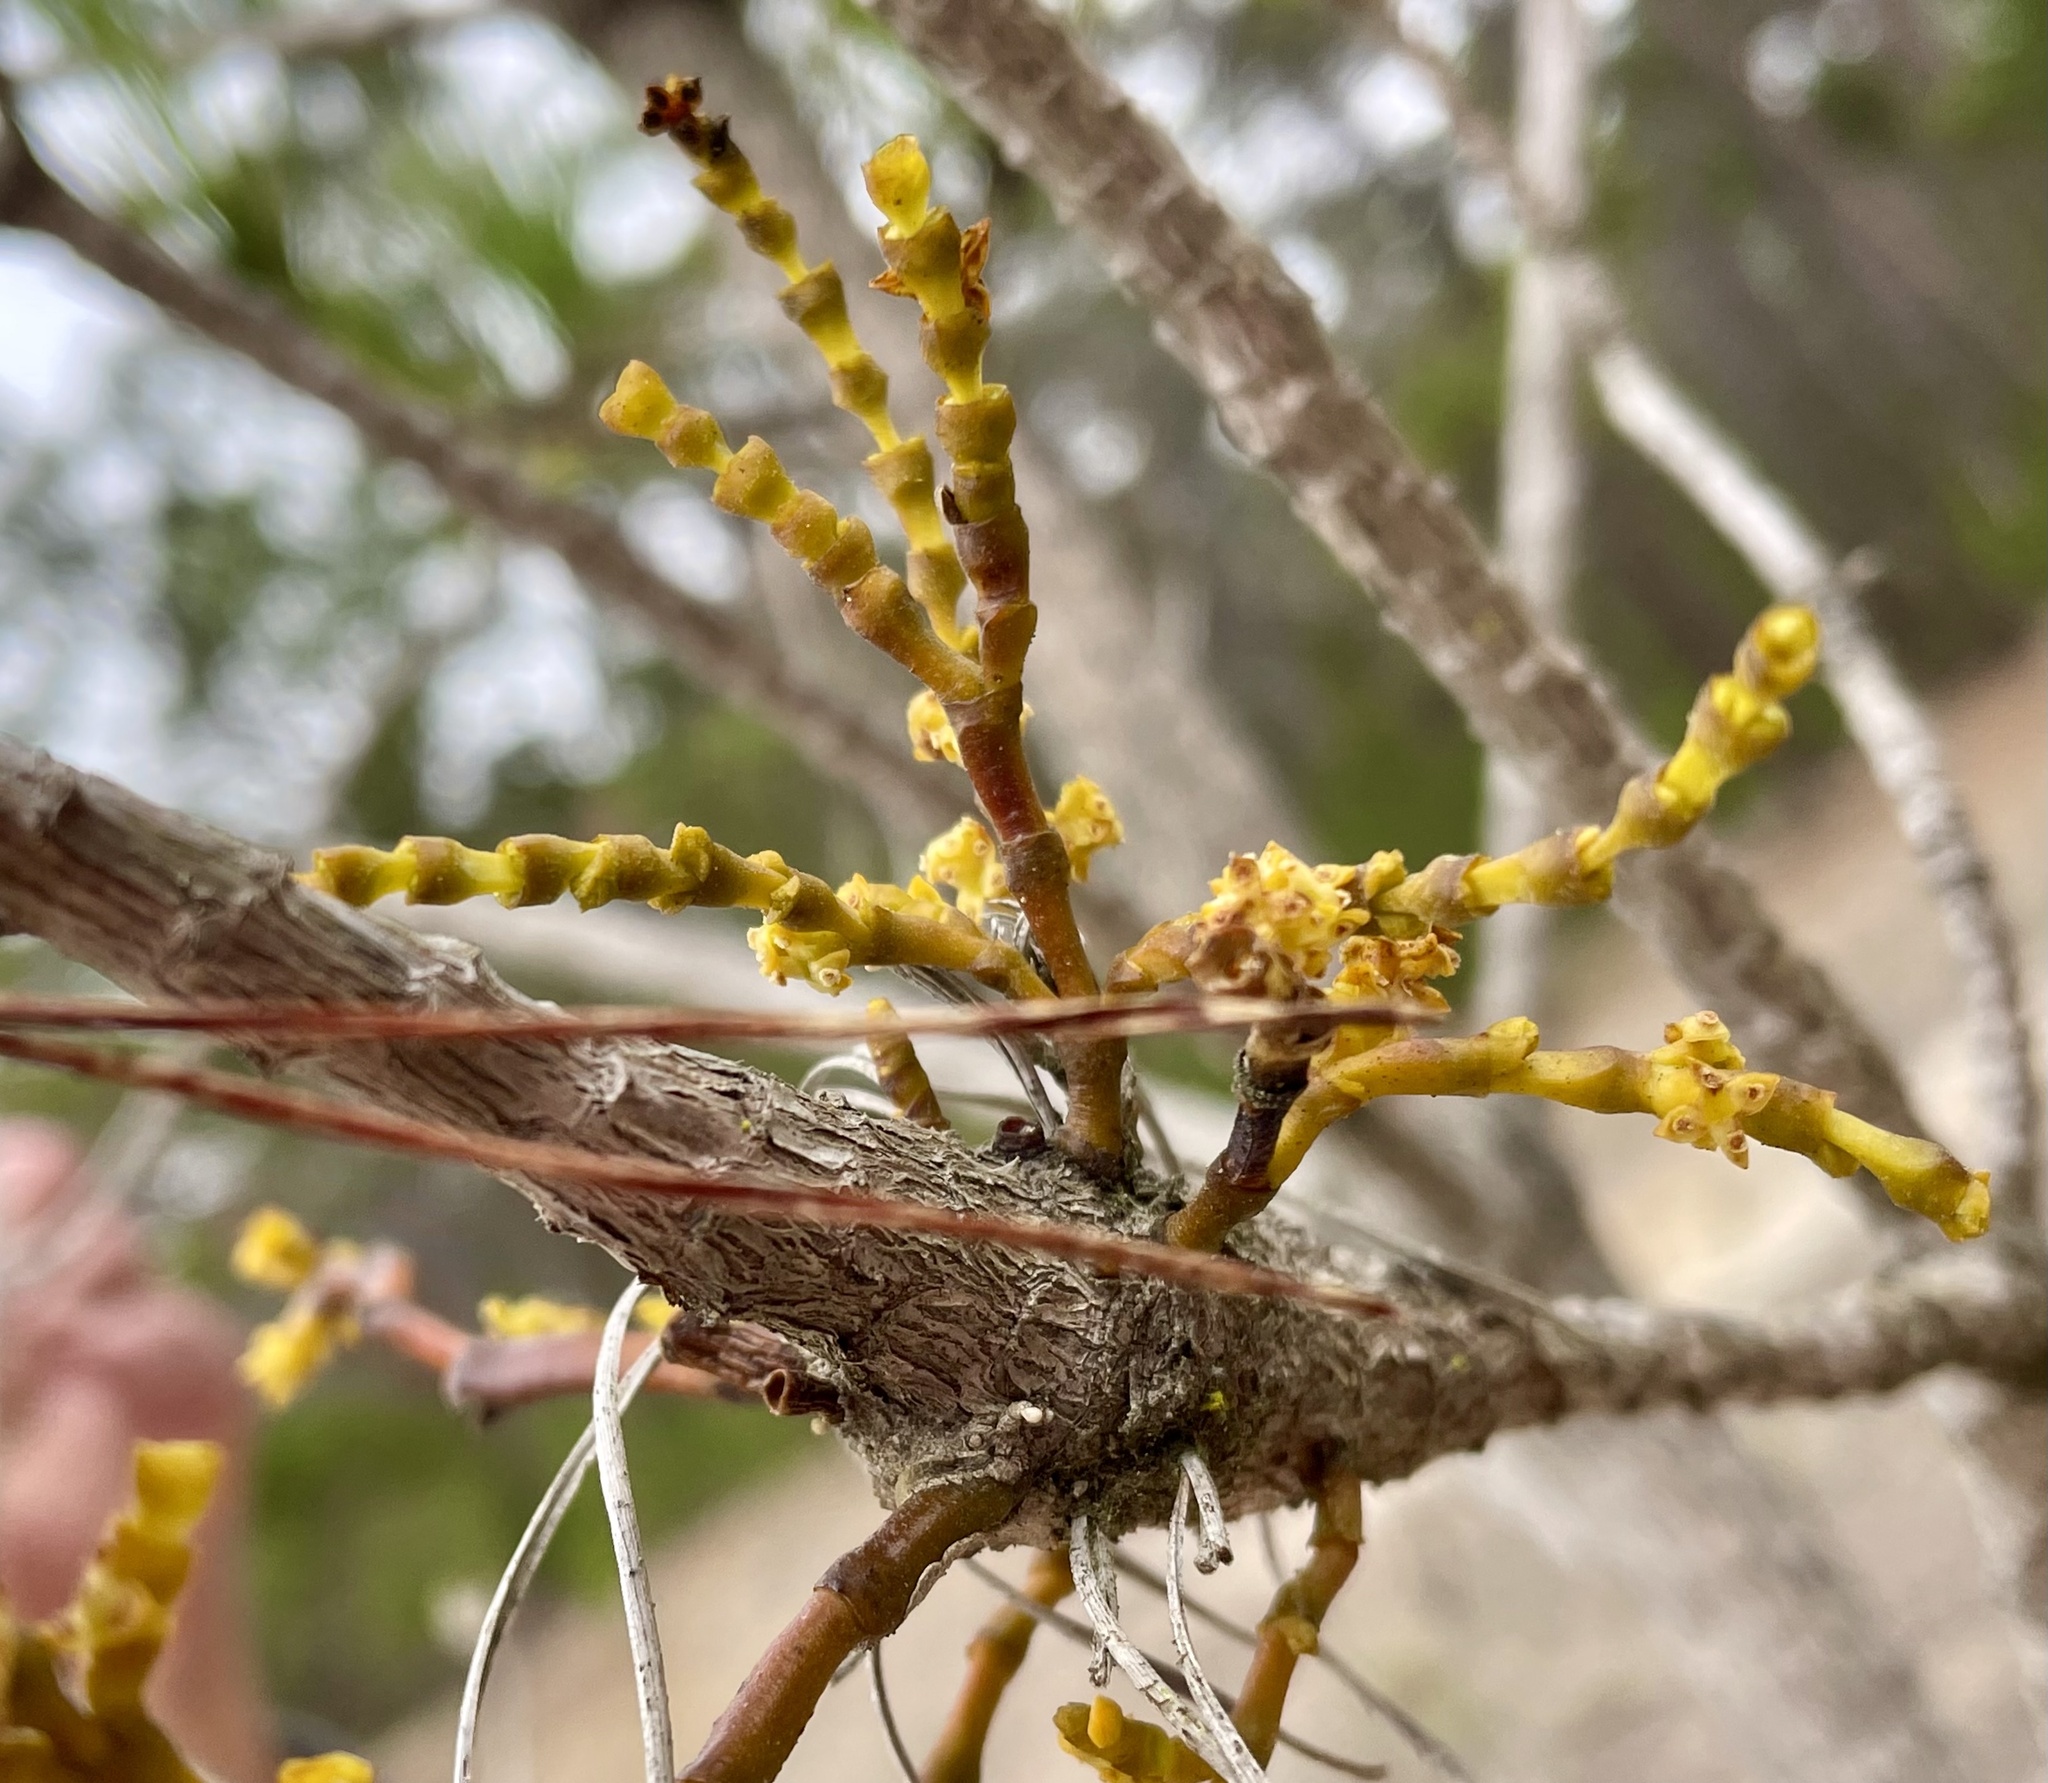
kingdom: Plantae
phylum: Tracheophyta
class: Pinopsida
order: Pinales
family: Pinaceae
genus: Pinus
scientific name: Pinus muricata
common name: Bishop pine
